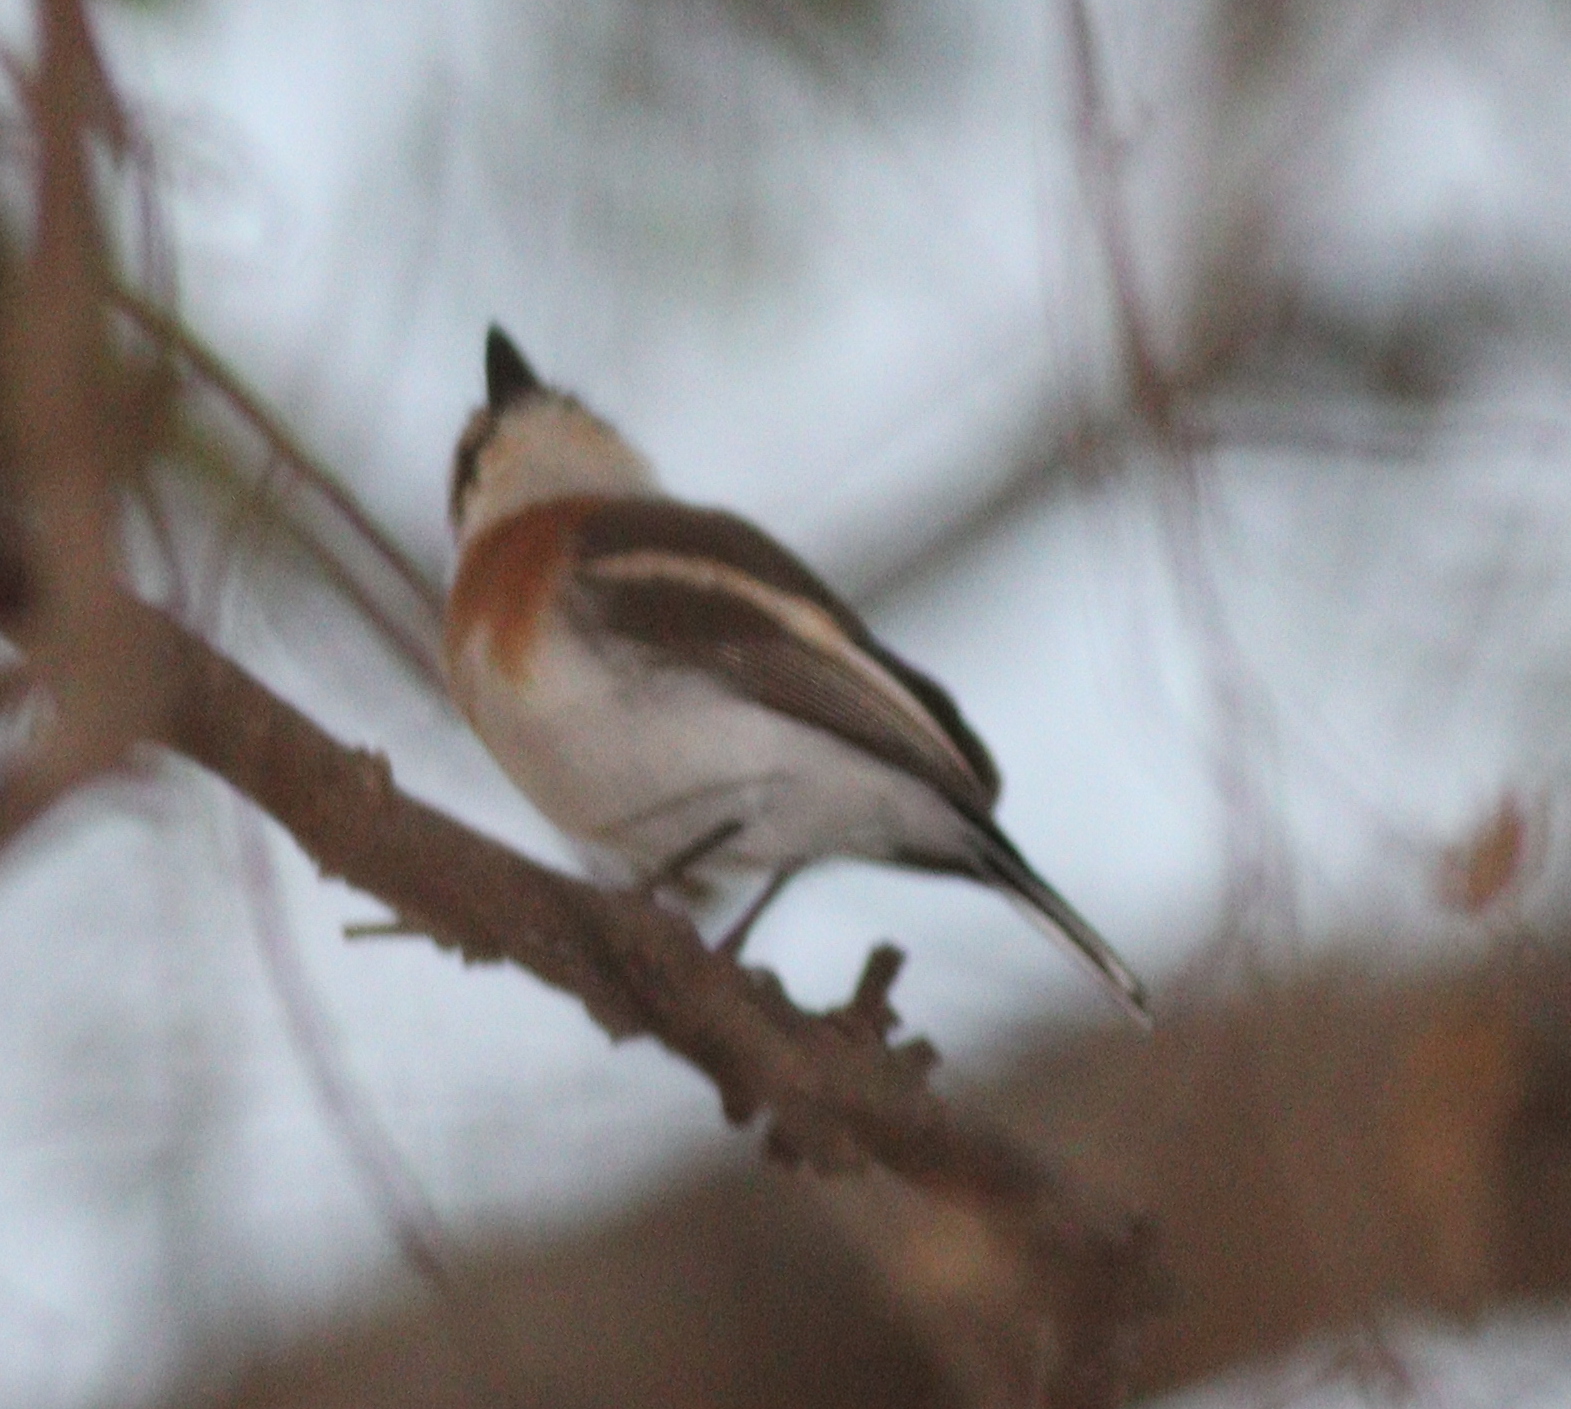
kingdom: Animalia
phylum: Chordata
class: Aves
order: Passeriformes
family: Platysteiridae
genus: Batis
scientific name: Batis senegalensis
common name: Senegal batis
